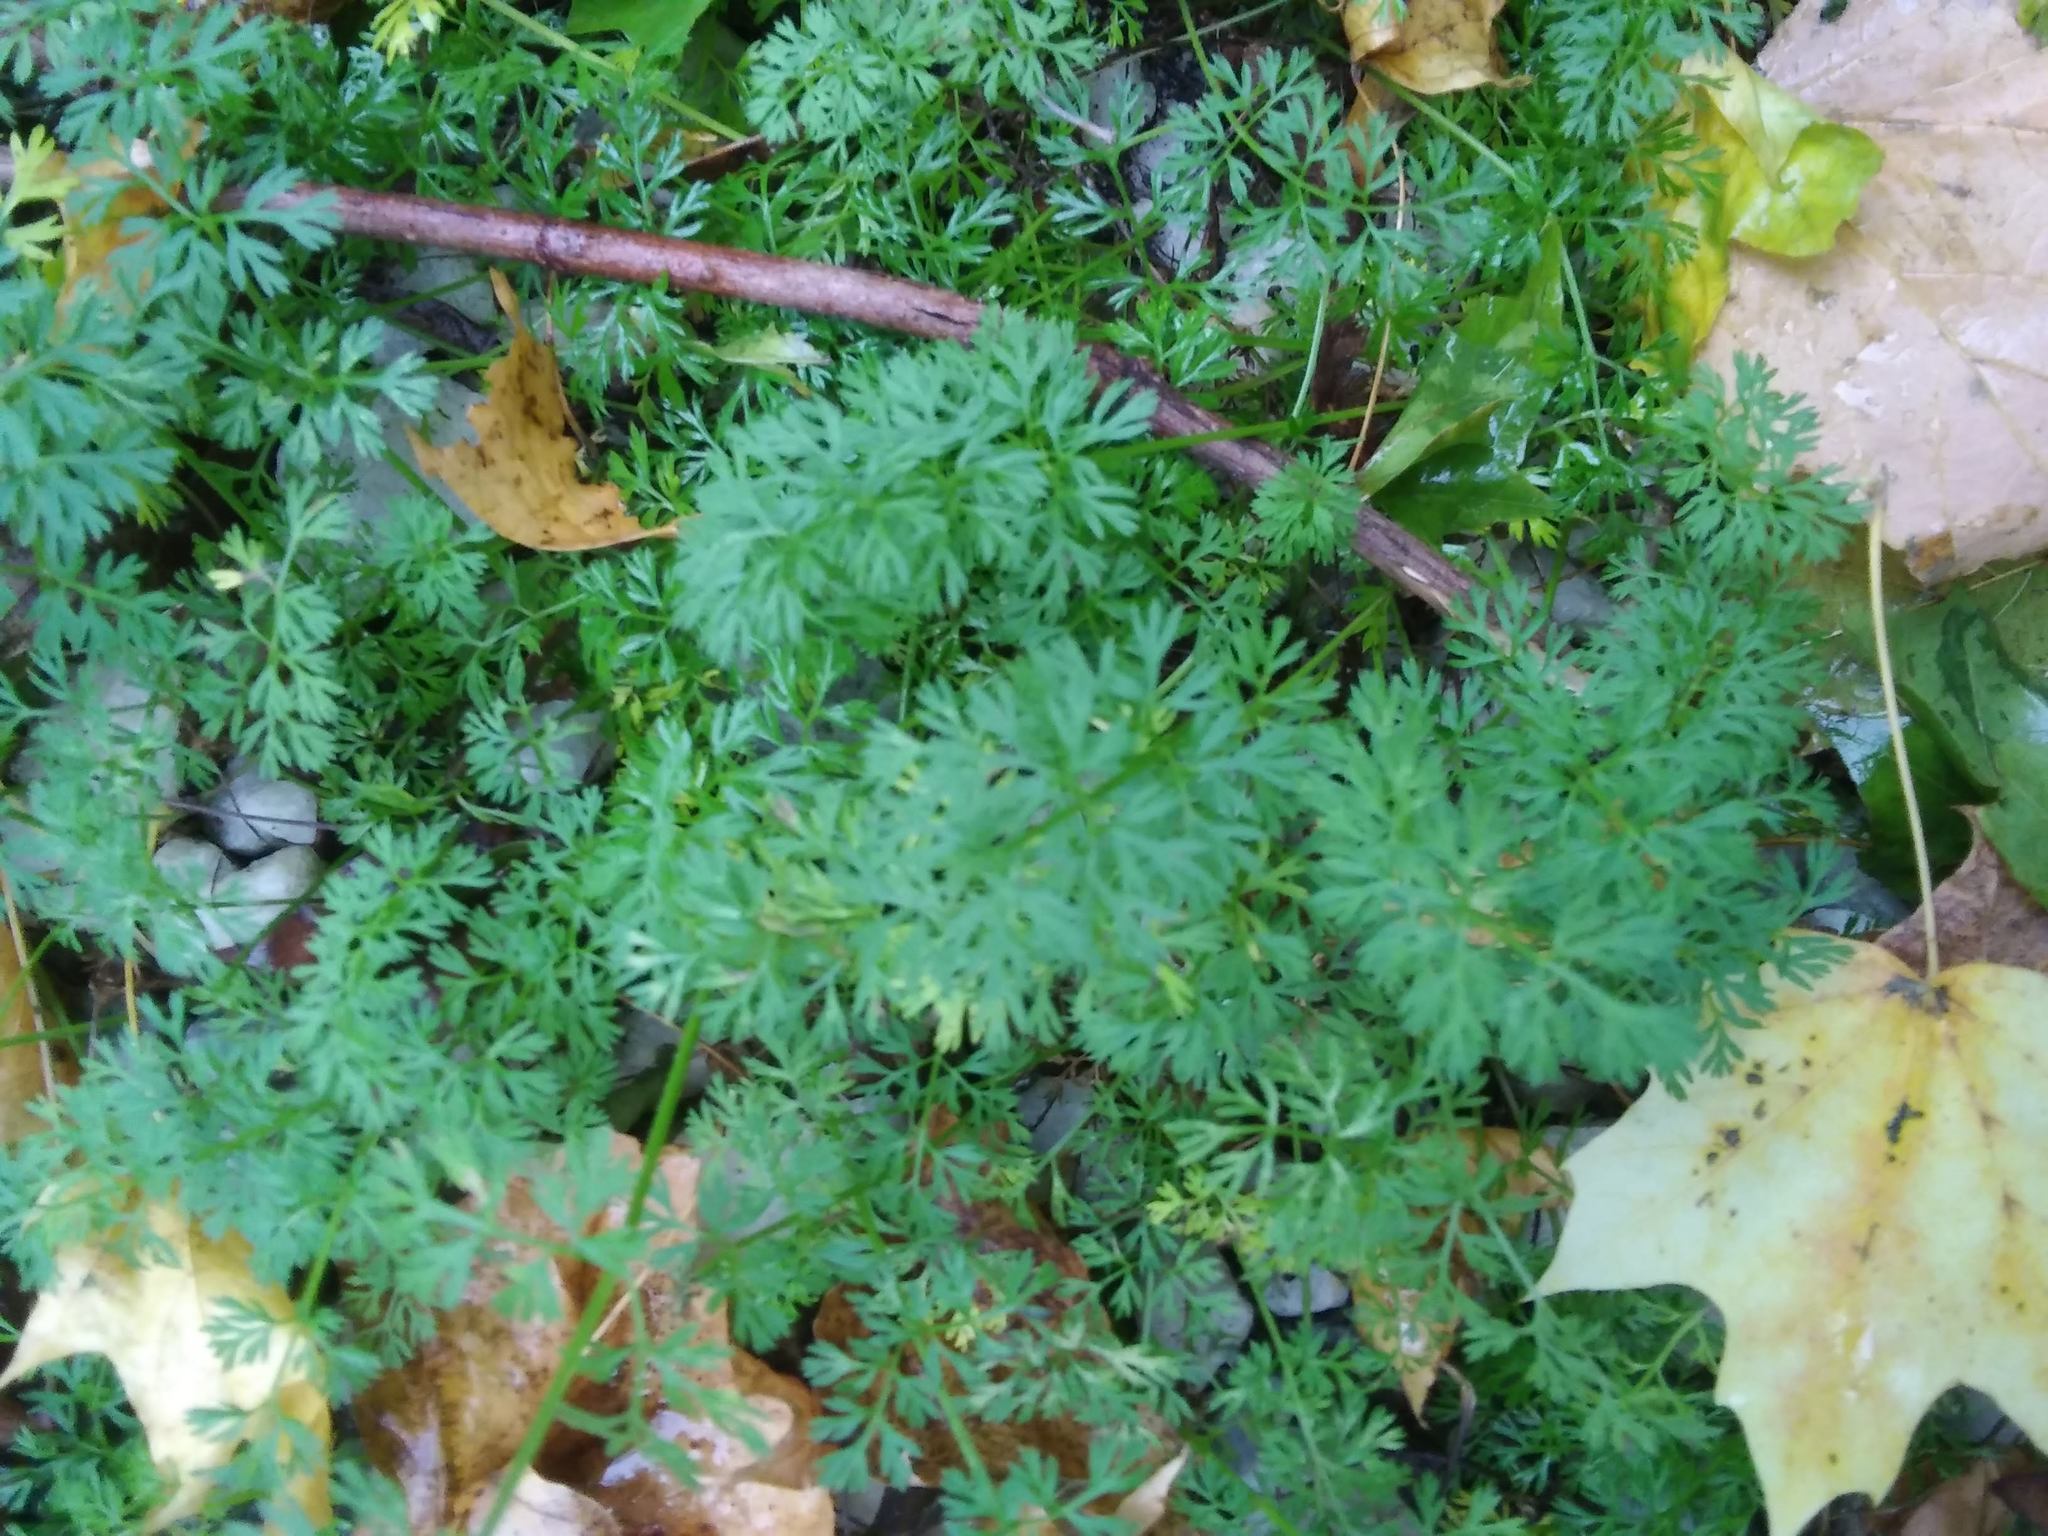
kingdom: Plantae
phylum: Tracheophyta
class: Magnoliopsida
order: Apiales
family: Apiaceae
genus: Daucus
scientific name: Daucus carota
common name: Wild carrot
